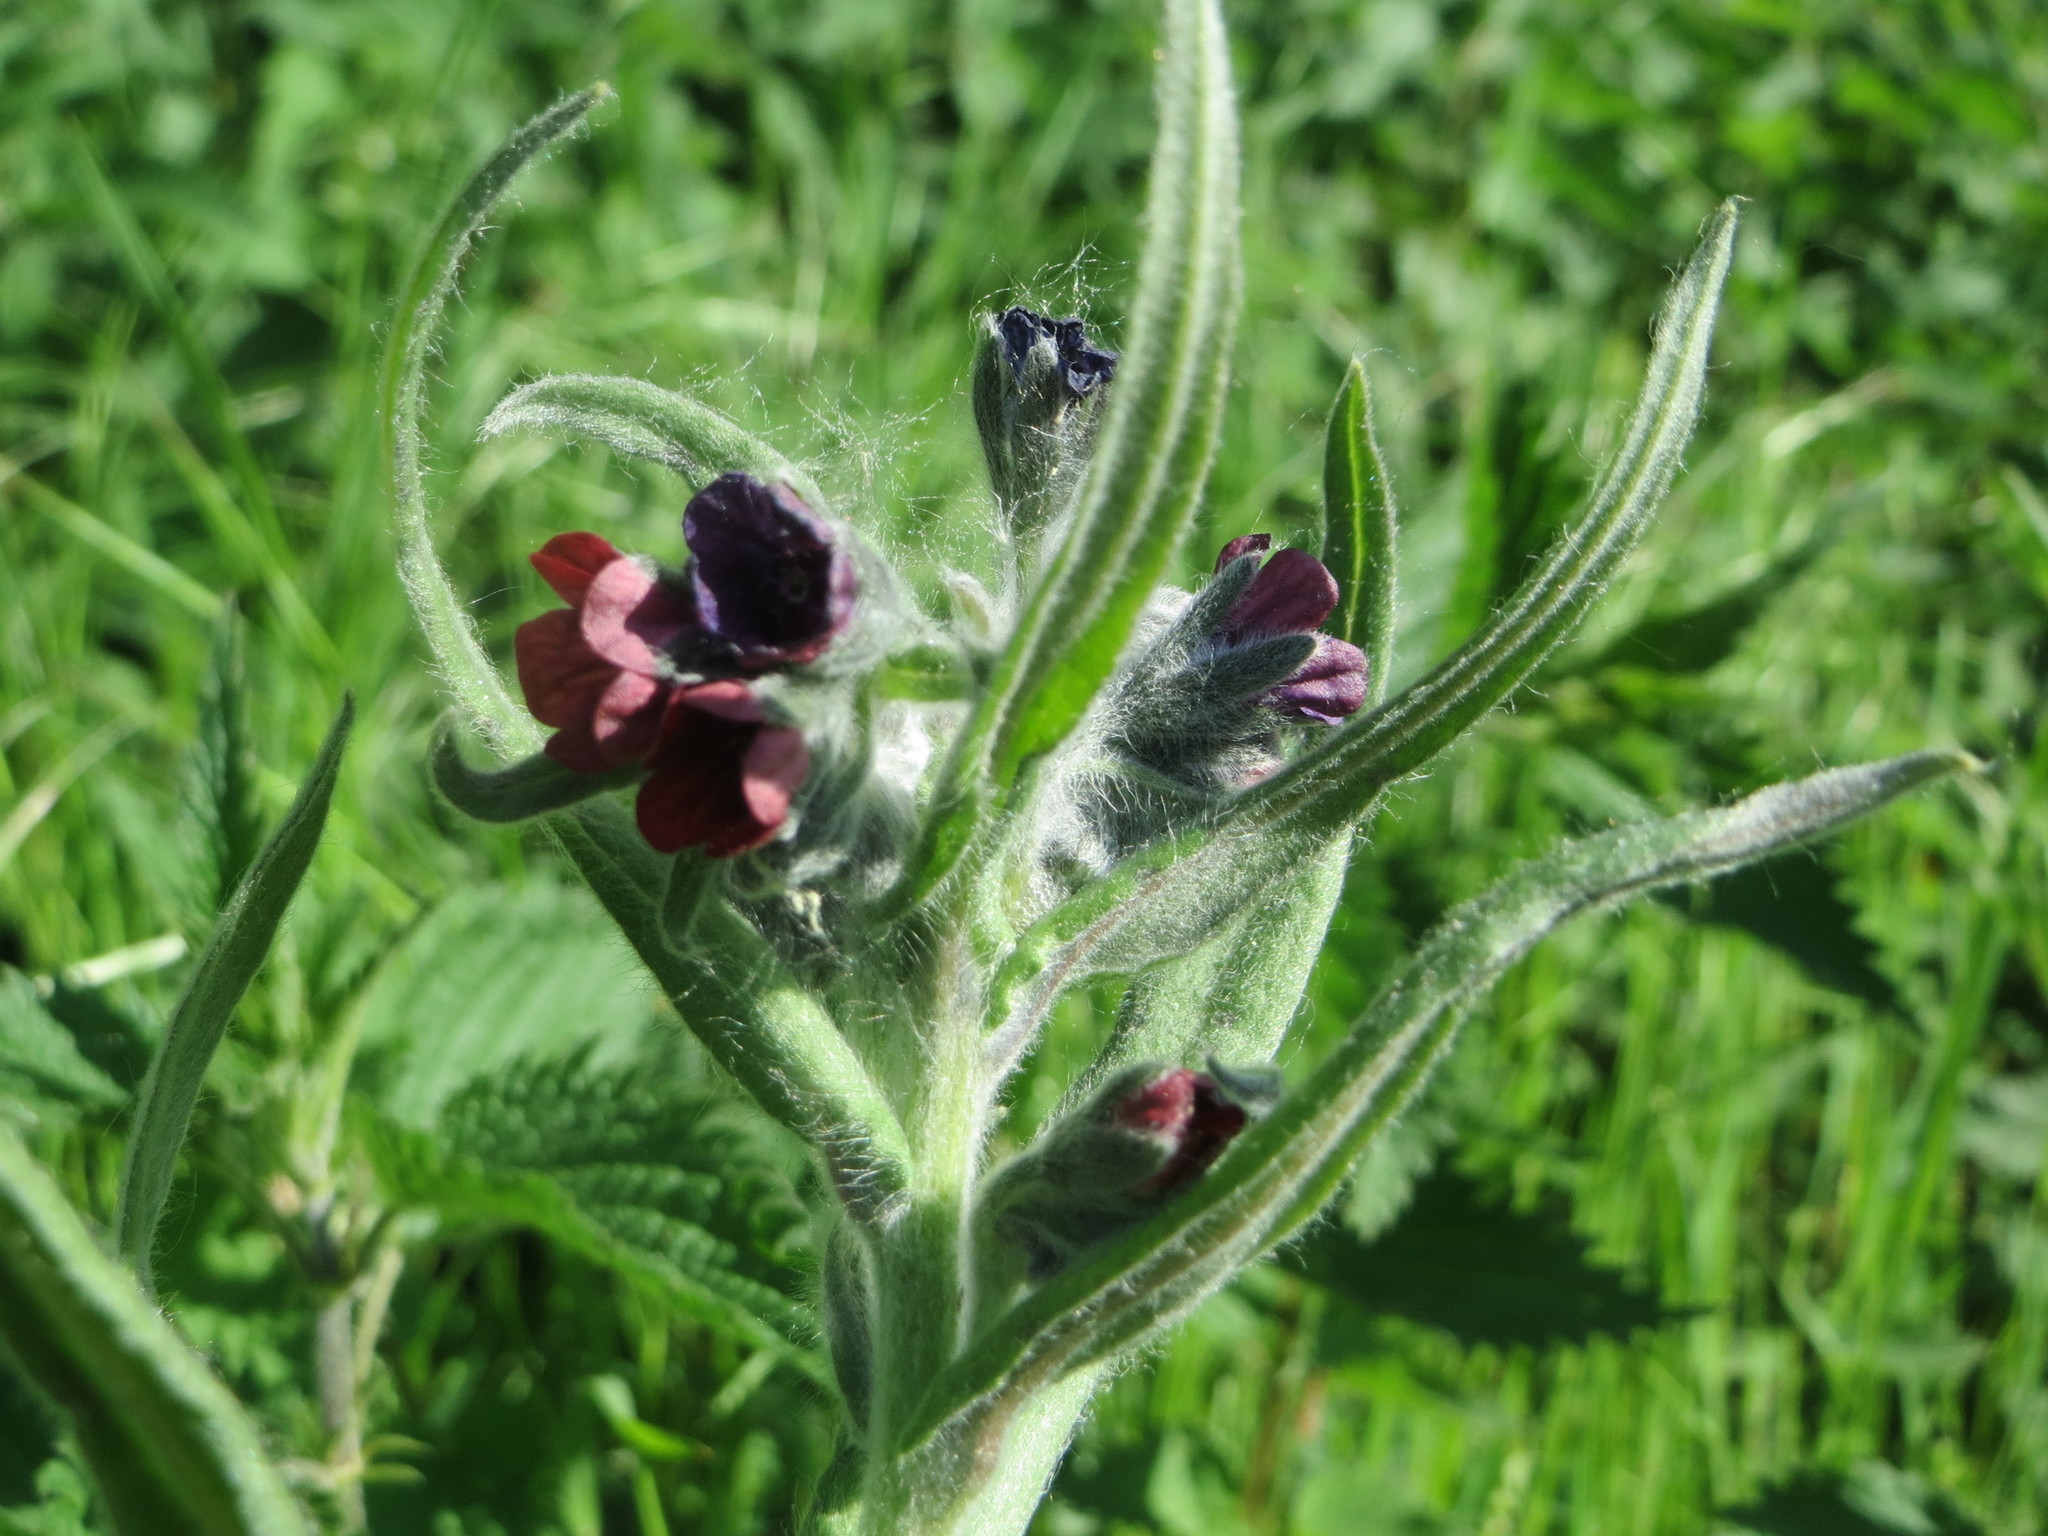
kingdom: Plantae
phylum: Tracheophyta
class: Magnoliopsida
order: Boraginales
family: Boraginaceae
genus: Cynoglossum
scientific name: Cynoglossum officinale
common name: Hound's-tongue
